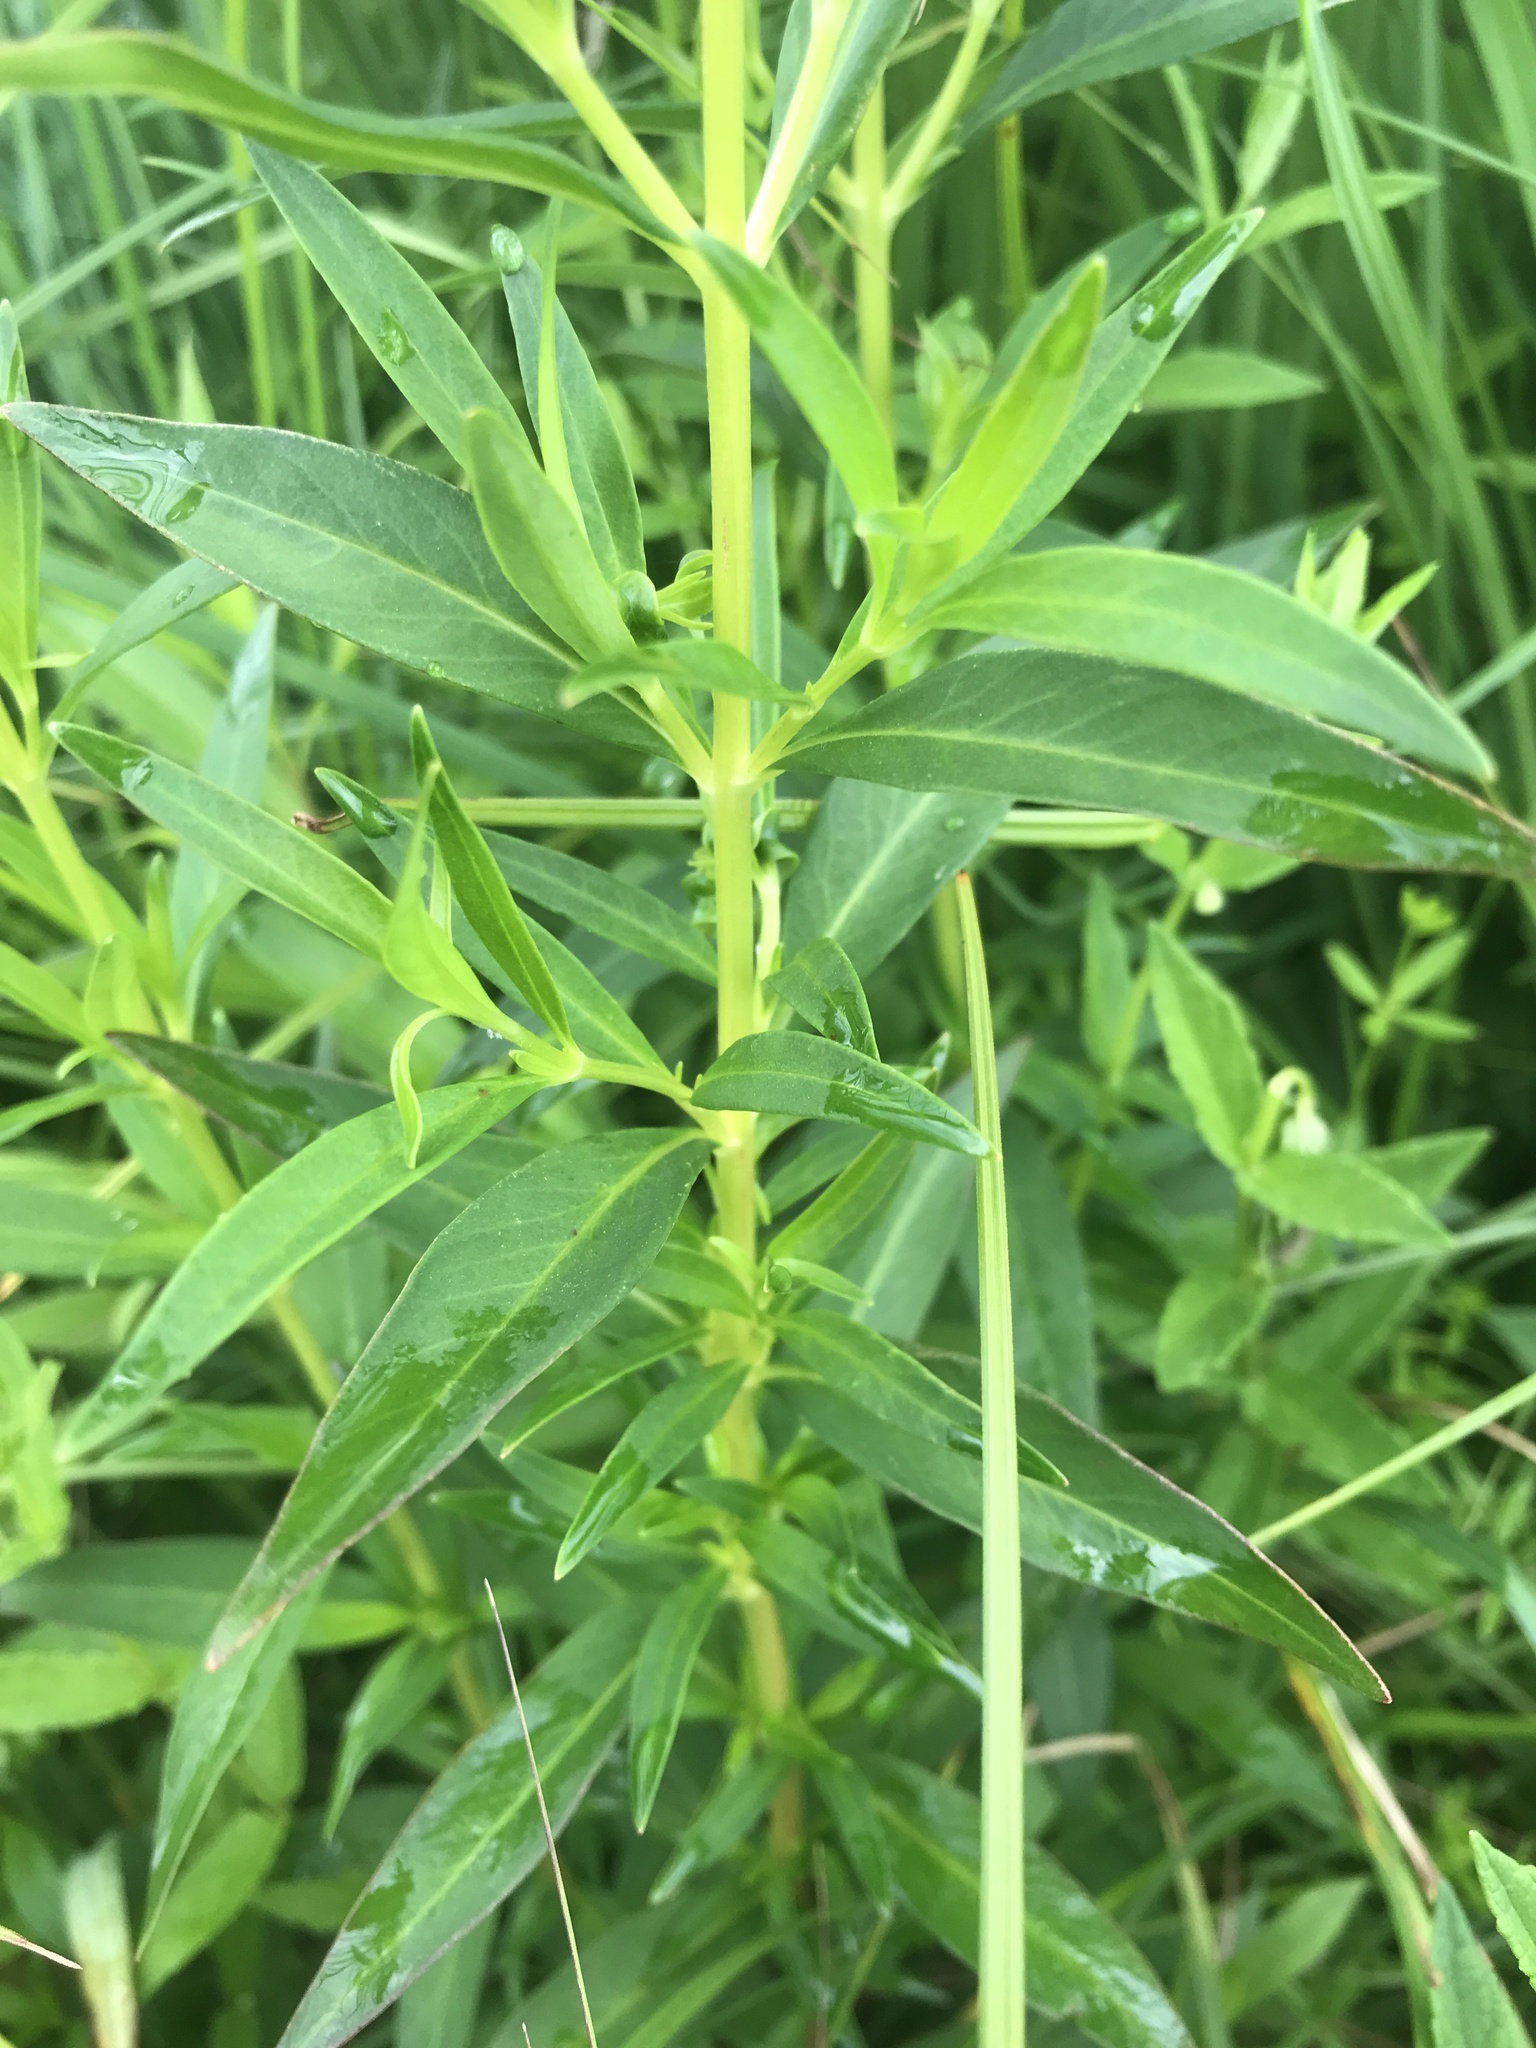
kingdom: Plantae
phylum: Tracheophyta
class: Magnoliopsida
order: Ericales
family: Primulaceae
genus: Lysimachia
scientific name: Lysimachia terrestris
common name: Lake loosestrife
